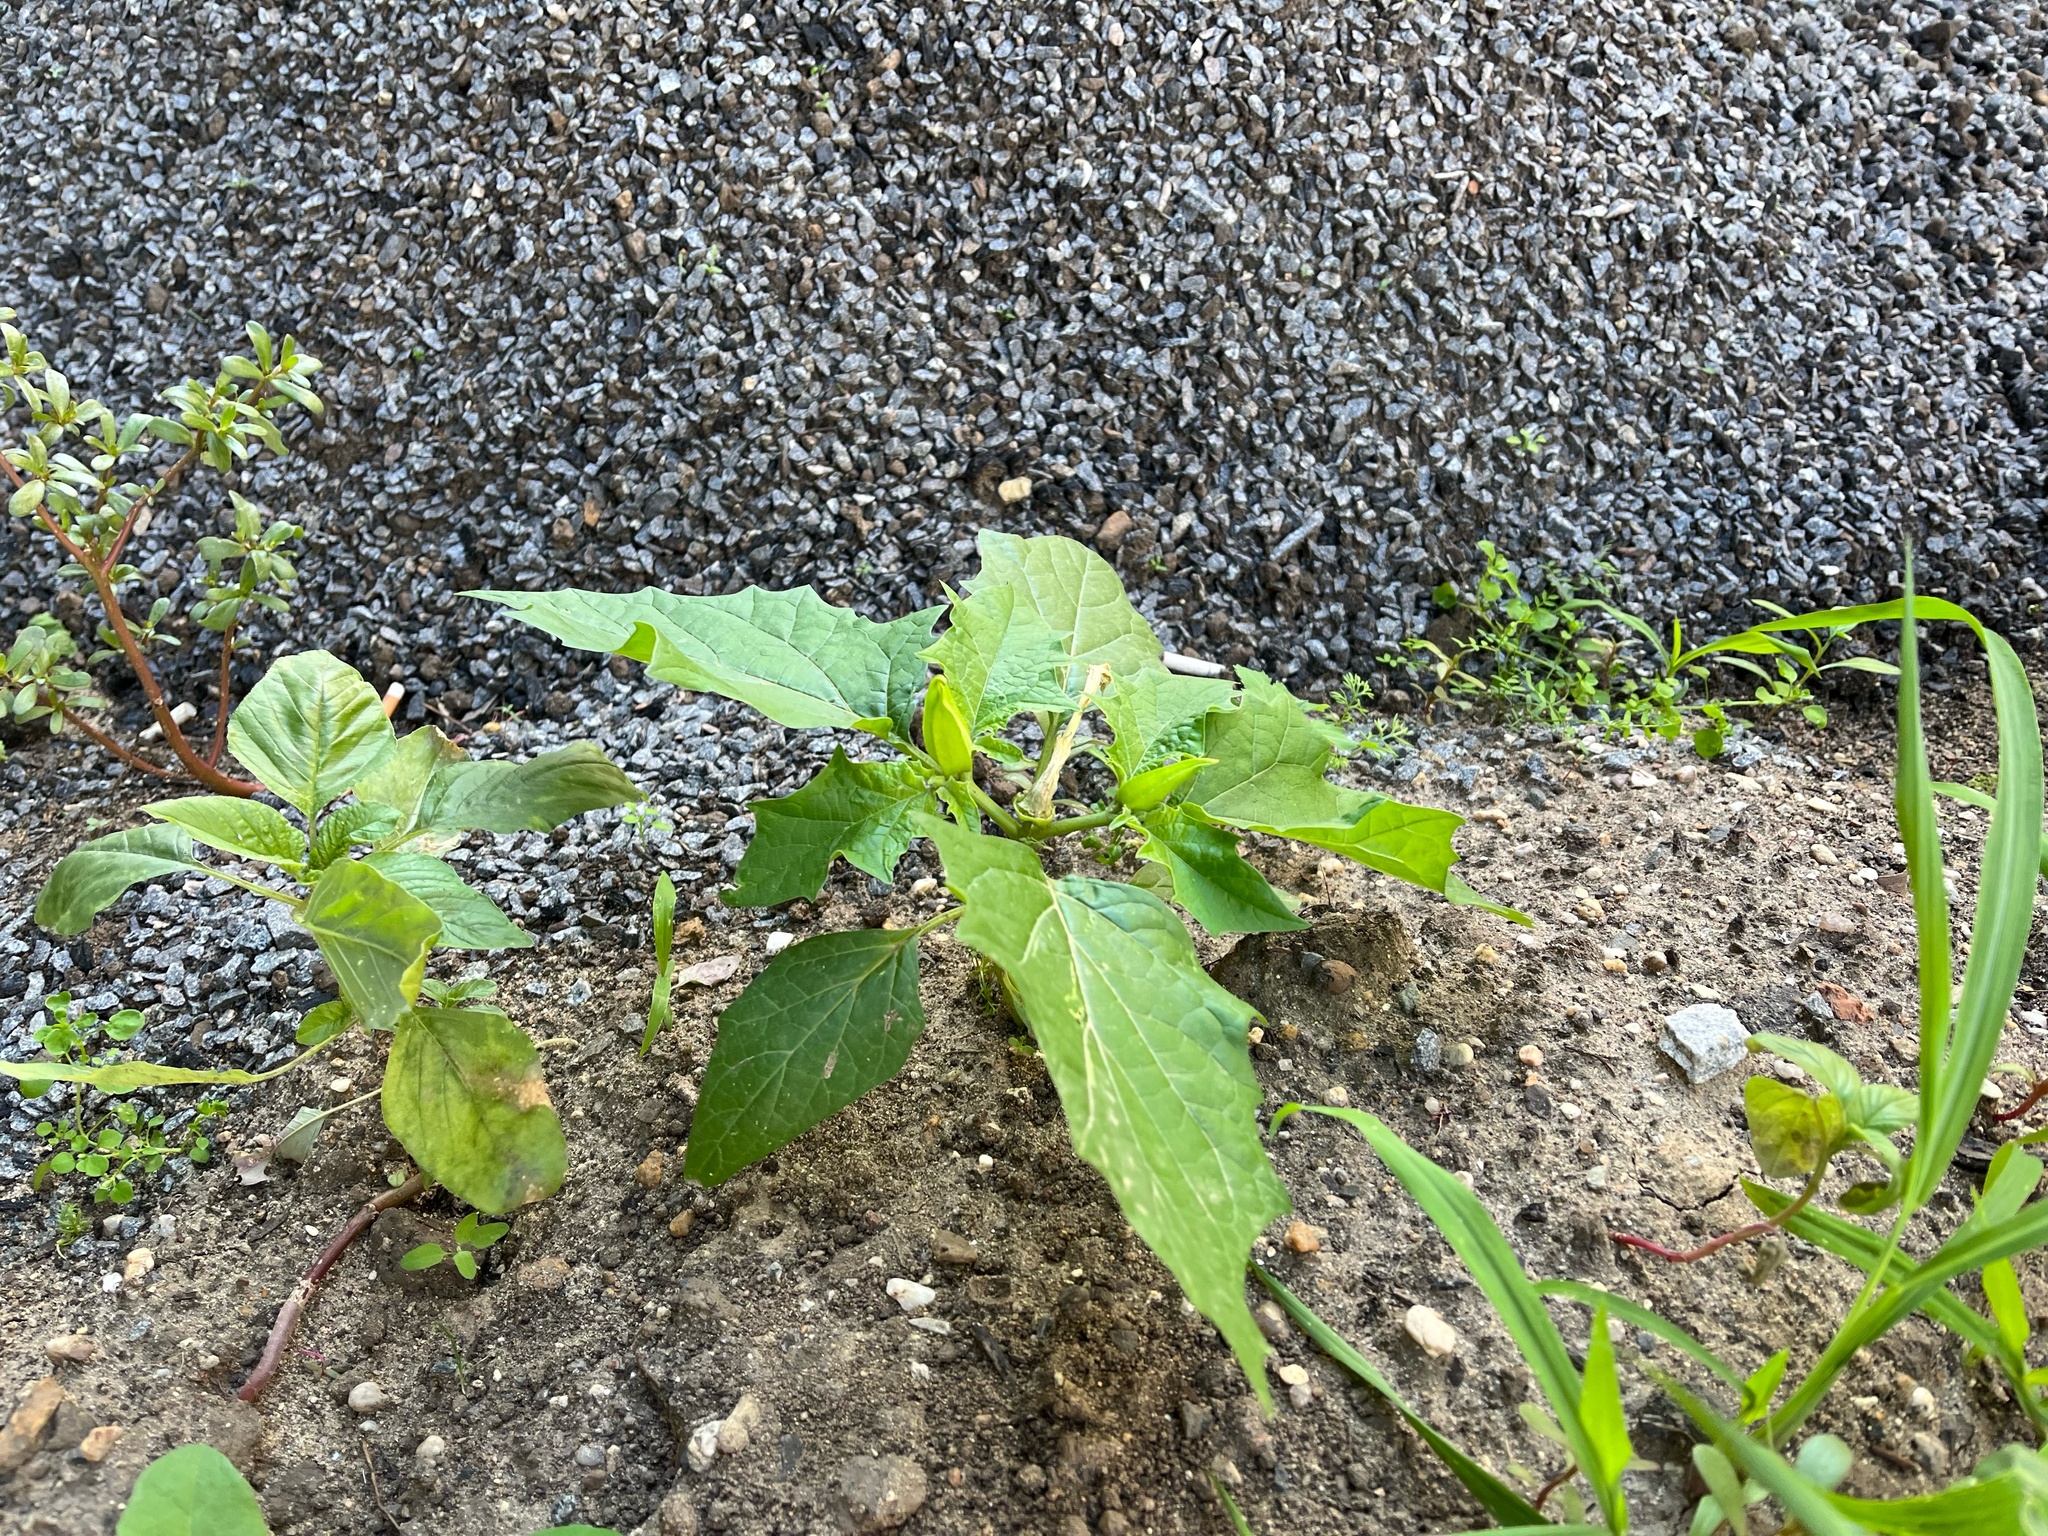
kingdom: Plantae
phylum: Tracheophyta
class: Magnoliopsida
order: Solanales
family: Solanaceae
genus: Datura
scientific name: Datura stramonium
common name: Thorn-apple
